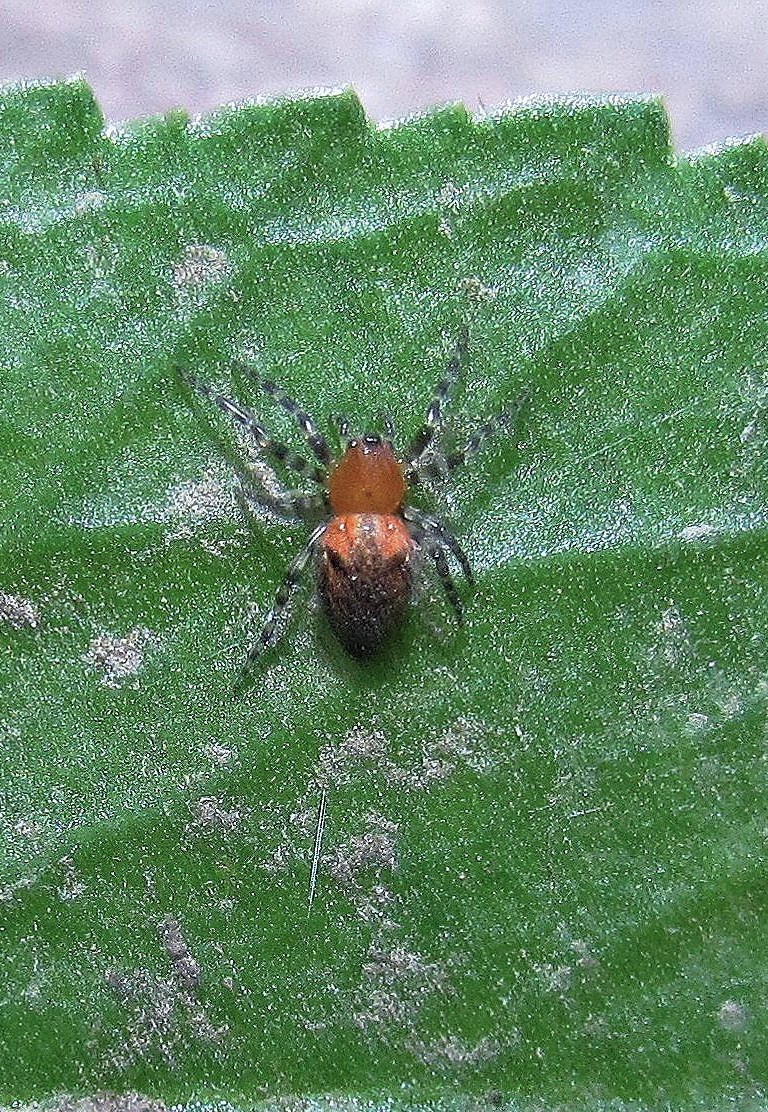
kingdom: Animalia
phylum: Arthropoda
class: Arachnida
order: Araneae
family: Araneidae
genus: Alpaida
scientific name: Alpaida gallardoi
